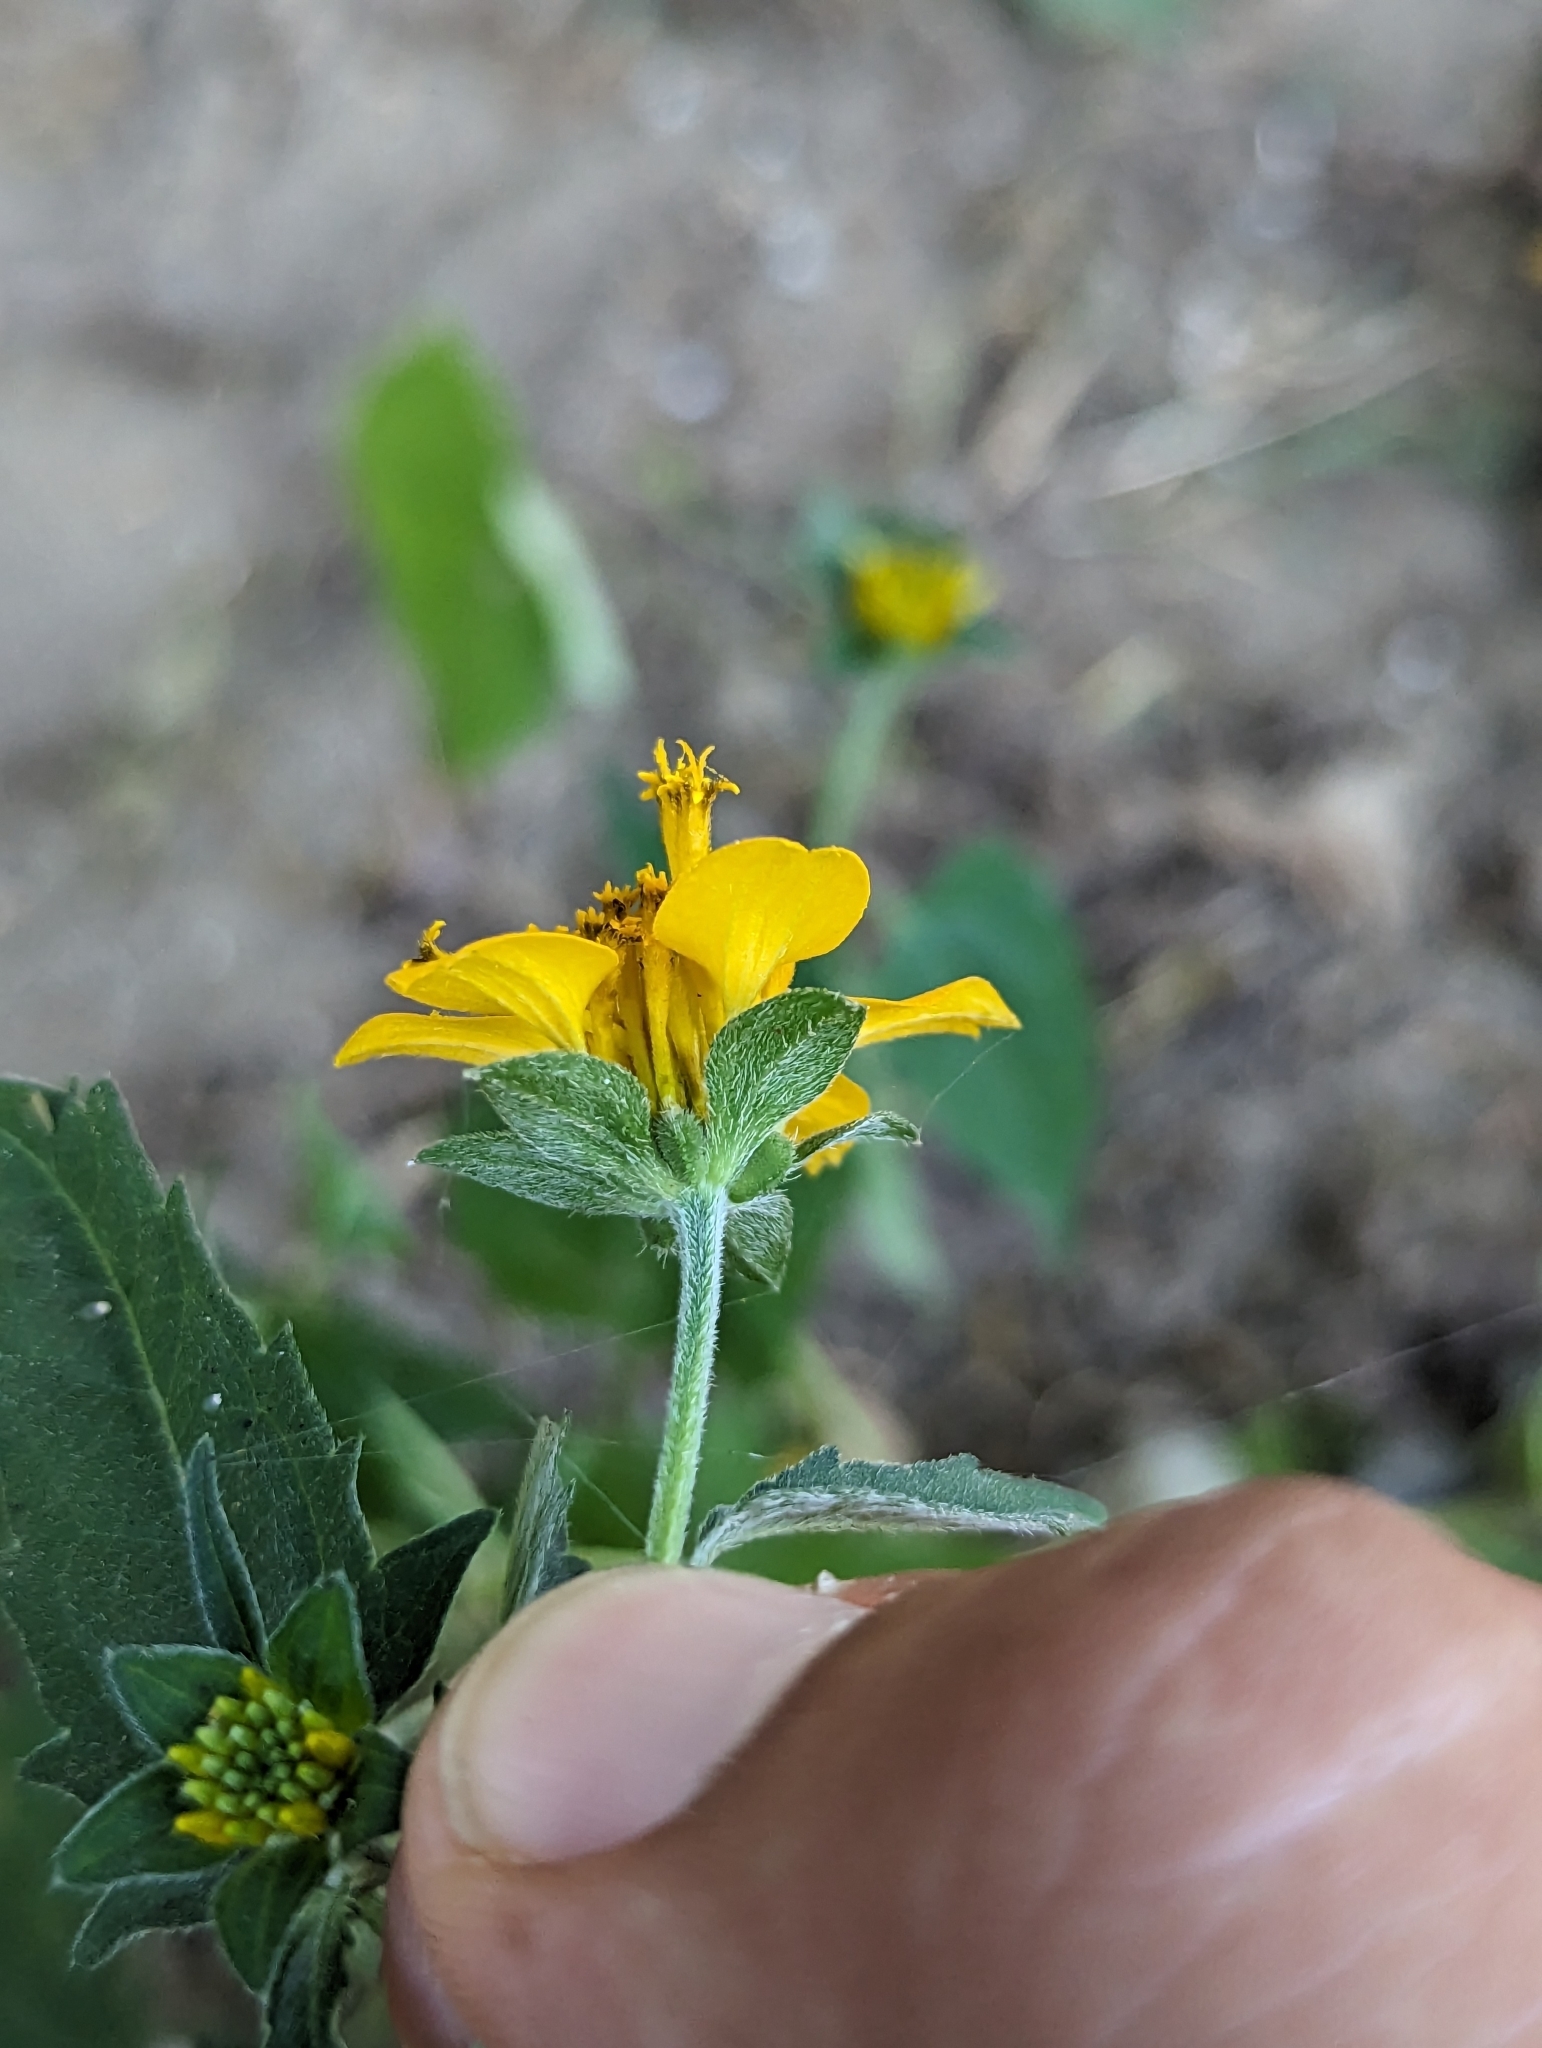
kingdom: Plantae
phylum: Tracheophyta
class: Magnoliopsida
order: Asterales
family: Asteraceae
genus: Sclerocarpus
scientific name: Sclerocarpus divaricatus
